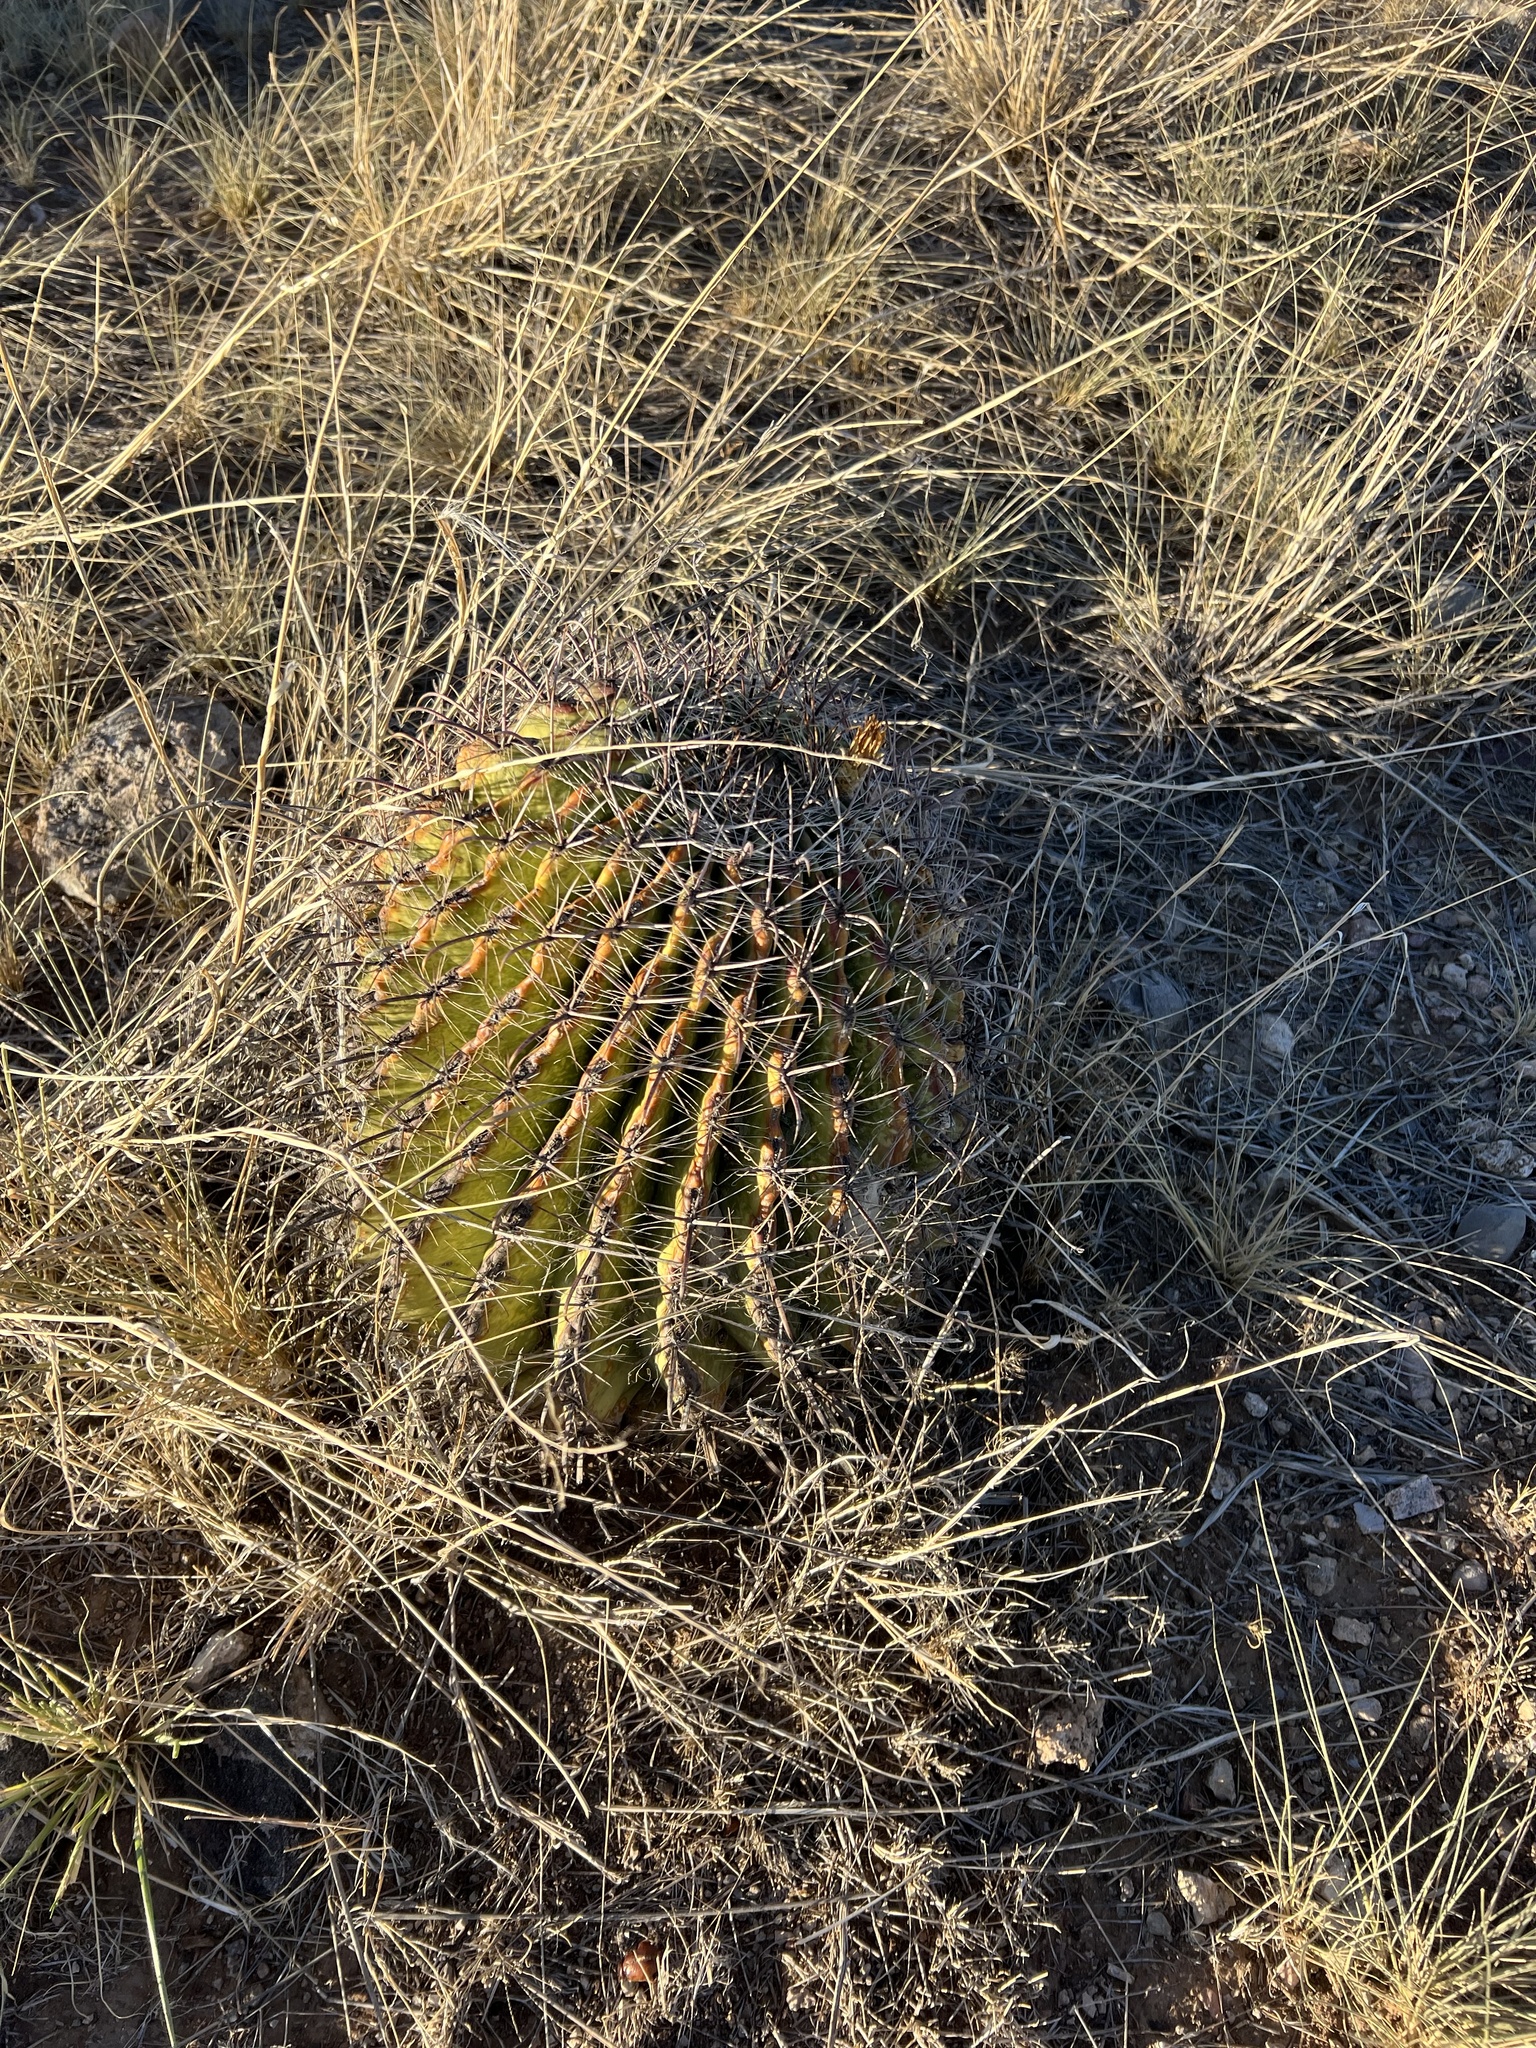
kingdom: Plantae
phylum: Tracheophyta
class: Magnoliopsida
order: Caryophyllales
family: Cactaceae
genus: Ferocactus
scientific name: Ferocactus wislizeni
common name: Candy barrel cactus
